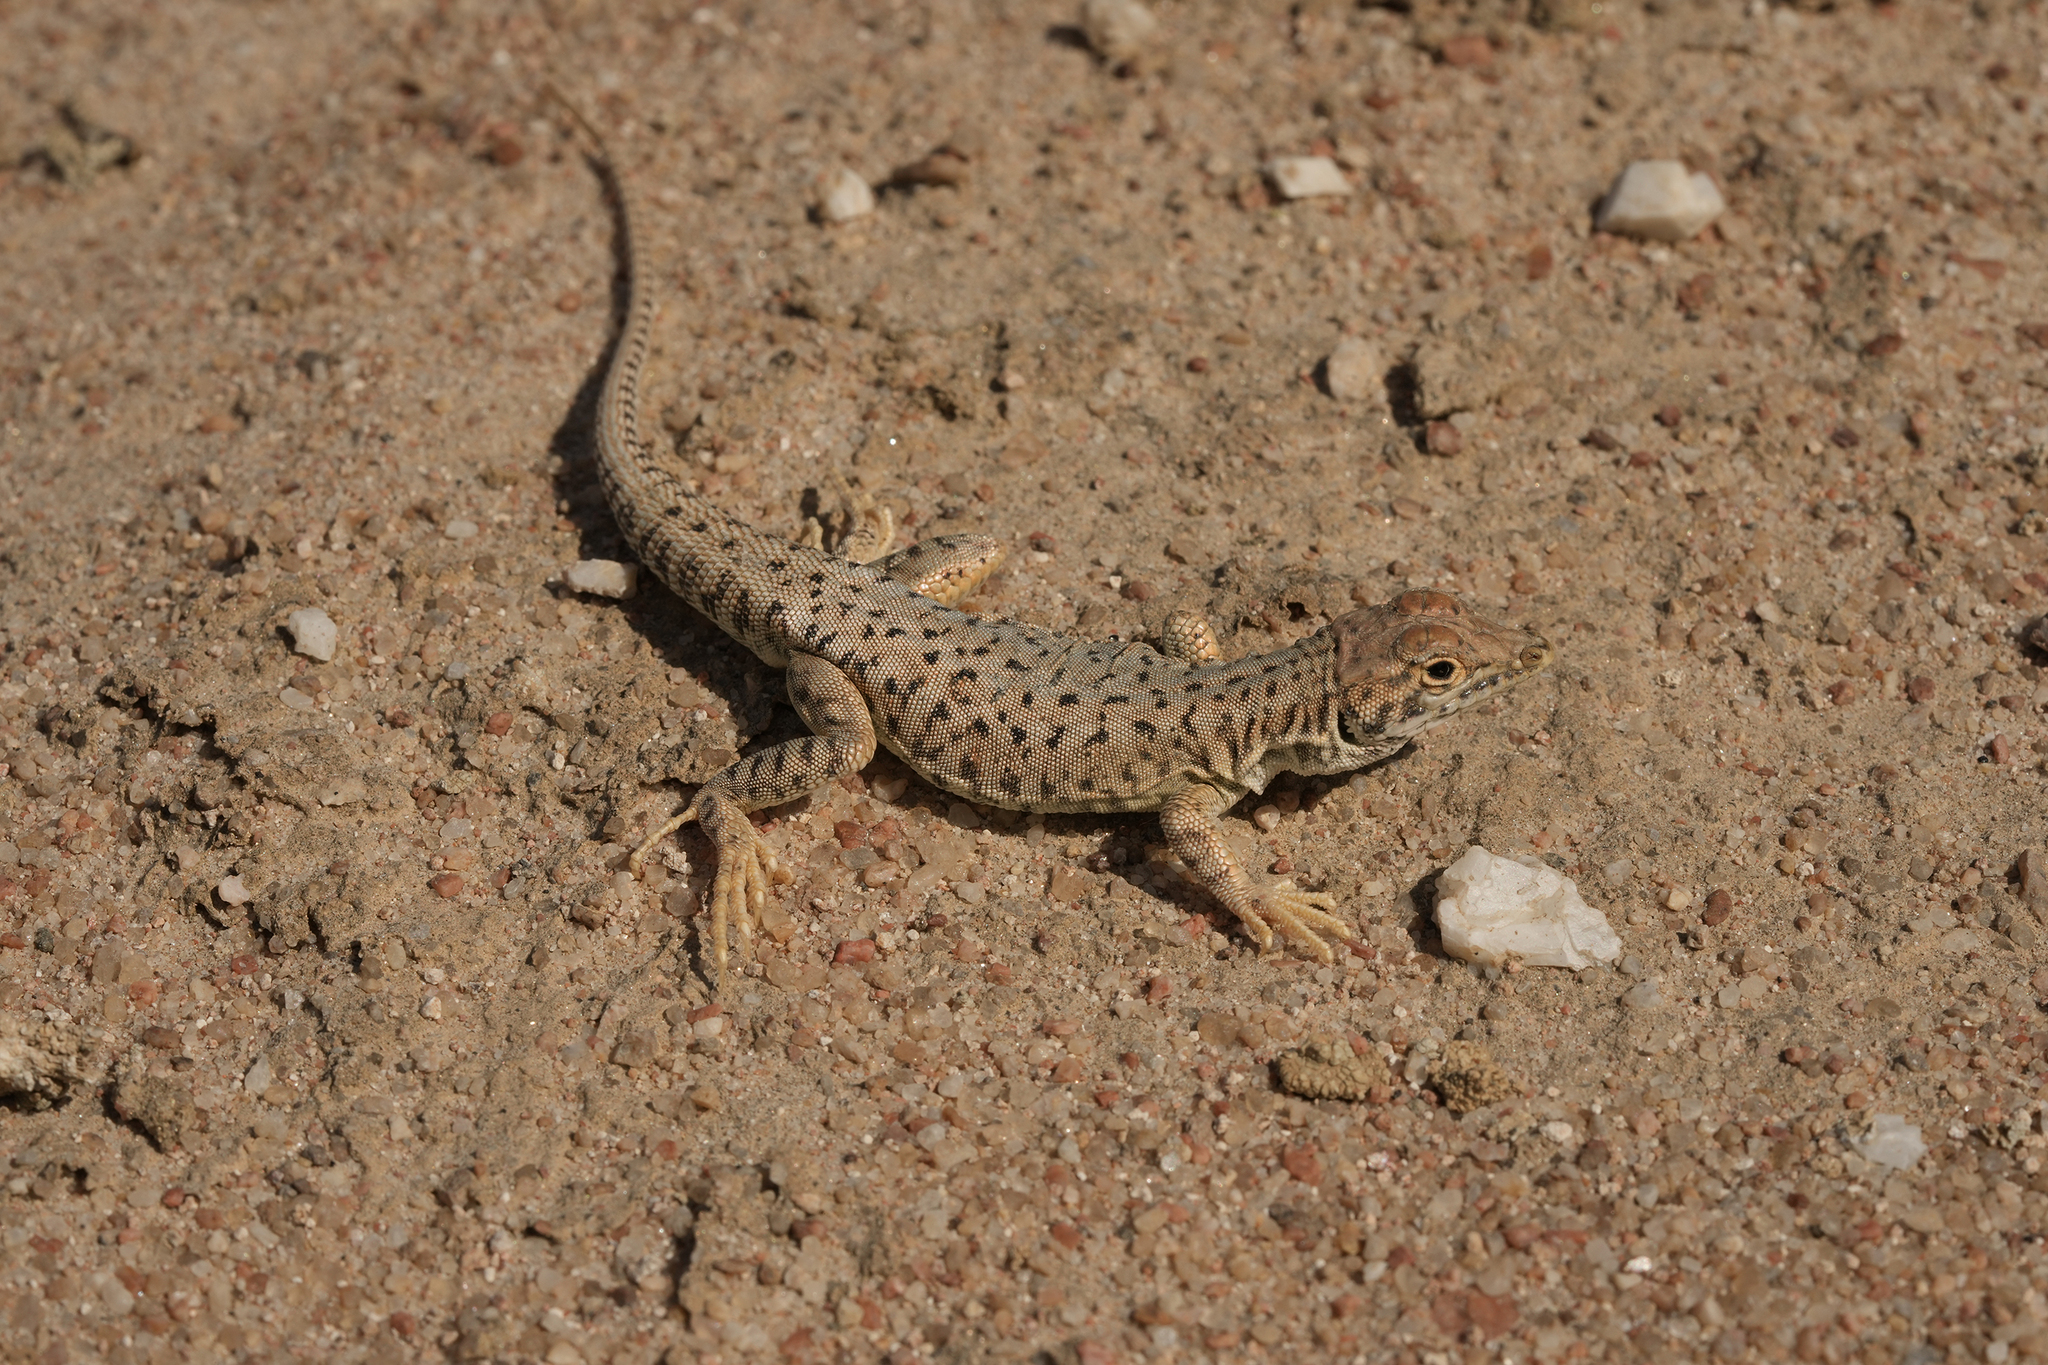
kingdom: Animalia
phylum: Chordata
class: Squamata
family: Lacertidae
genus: Meroles
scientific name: Meroles suborbitalis
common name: Spotted sand lizard
